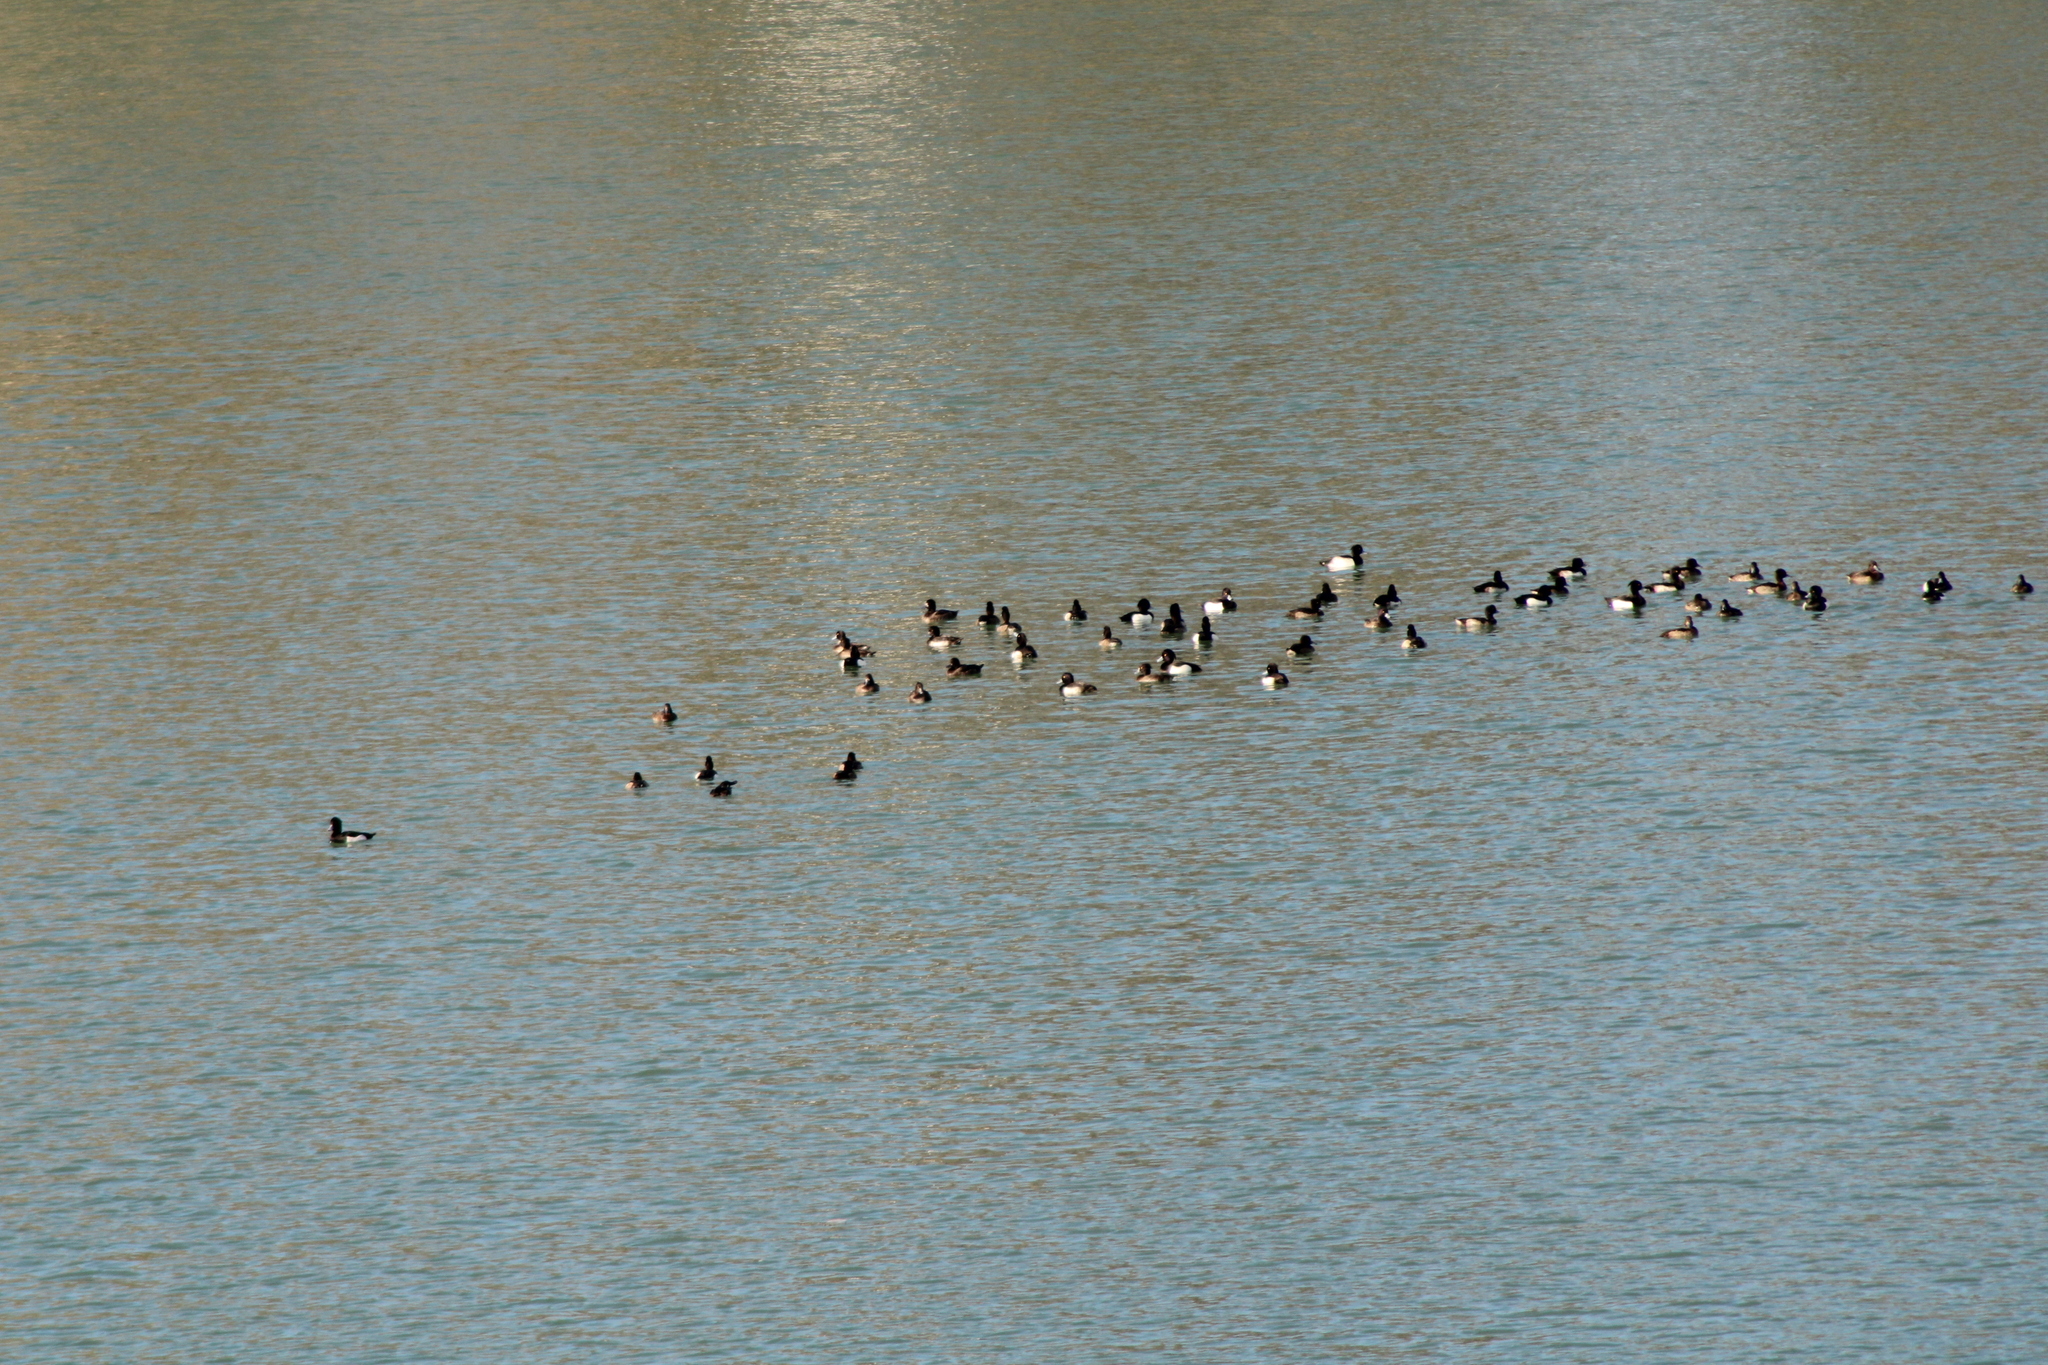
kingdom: Animalia
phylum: Chordata
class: Aves
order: Anseriformes
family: Anatidae
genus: Aythya
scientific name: Aythya fuligula
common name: Tufted duck
